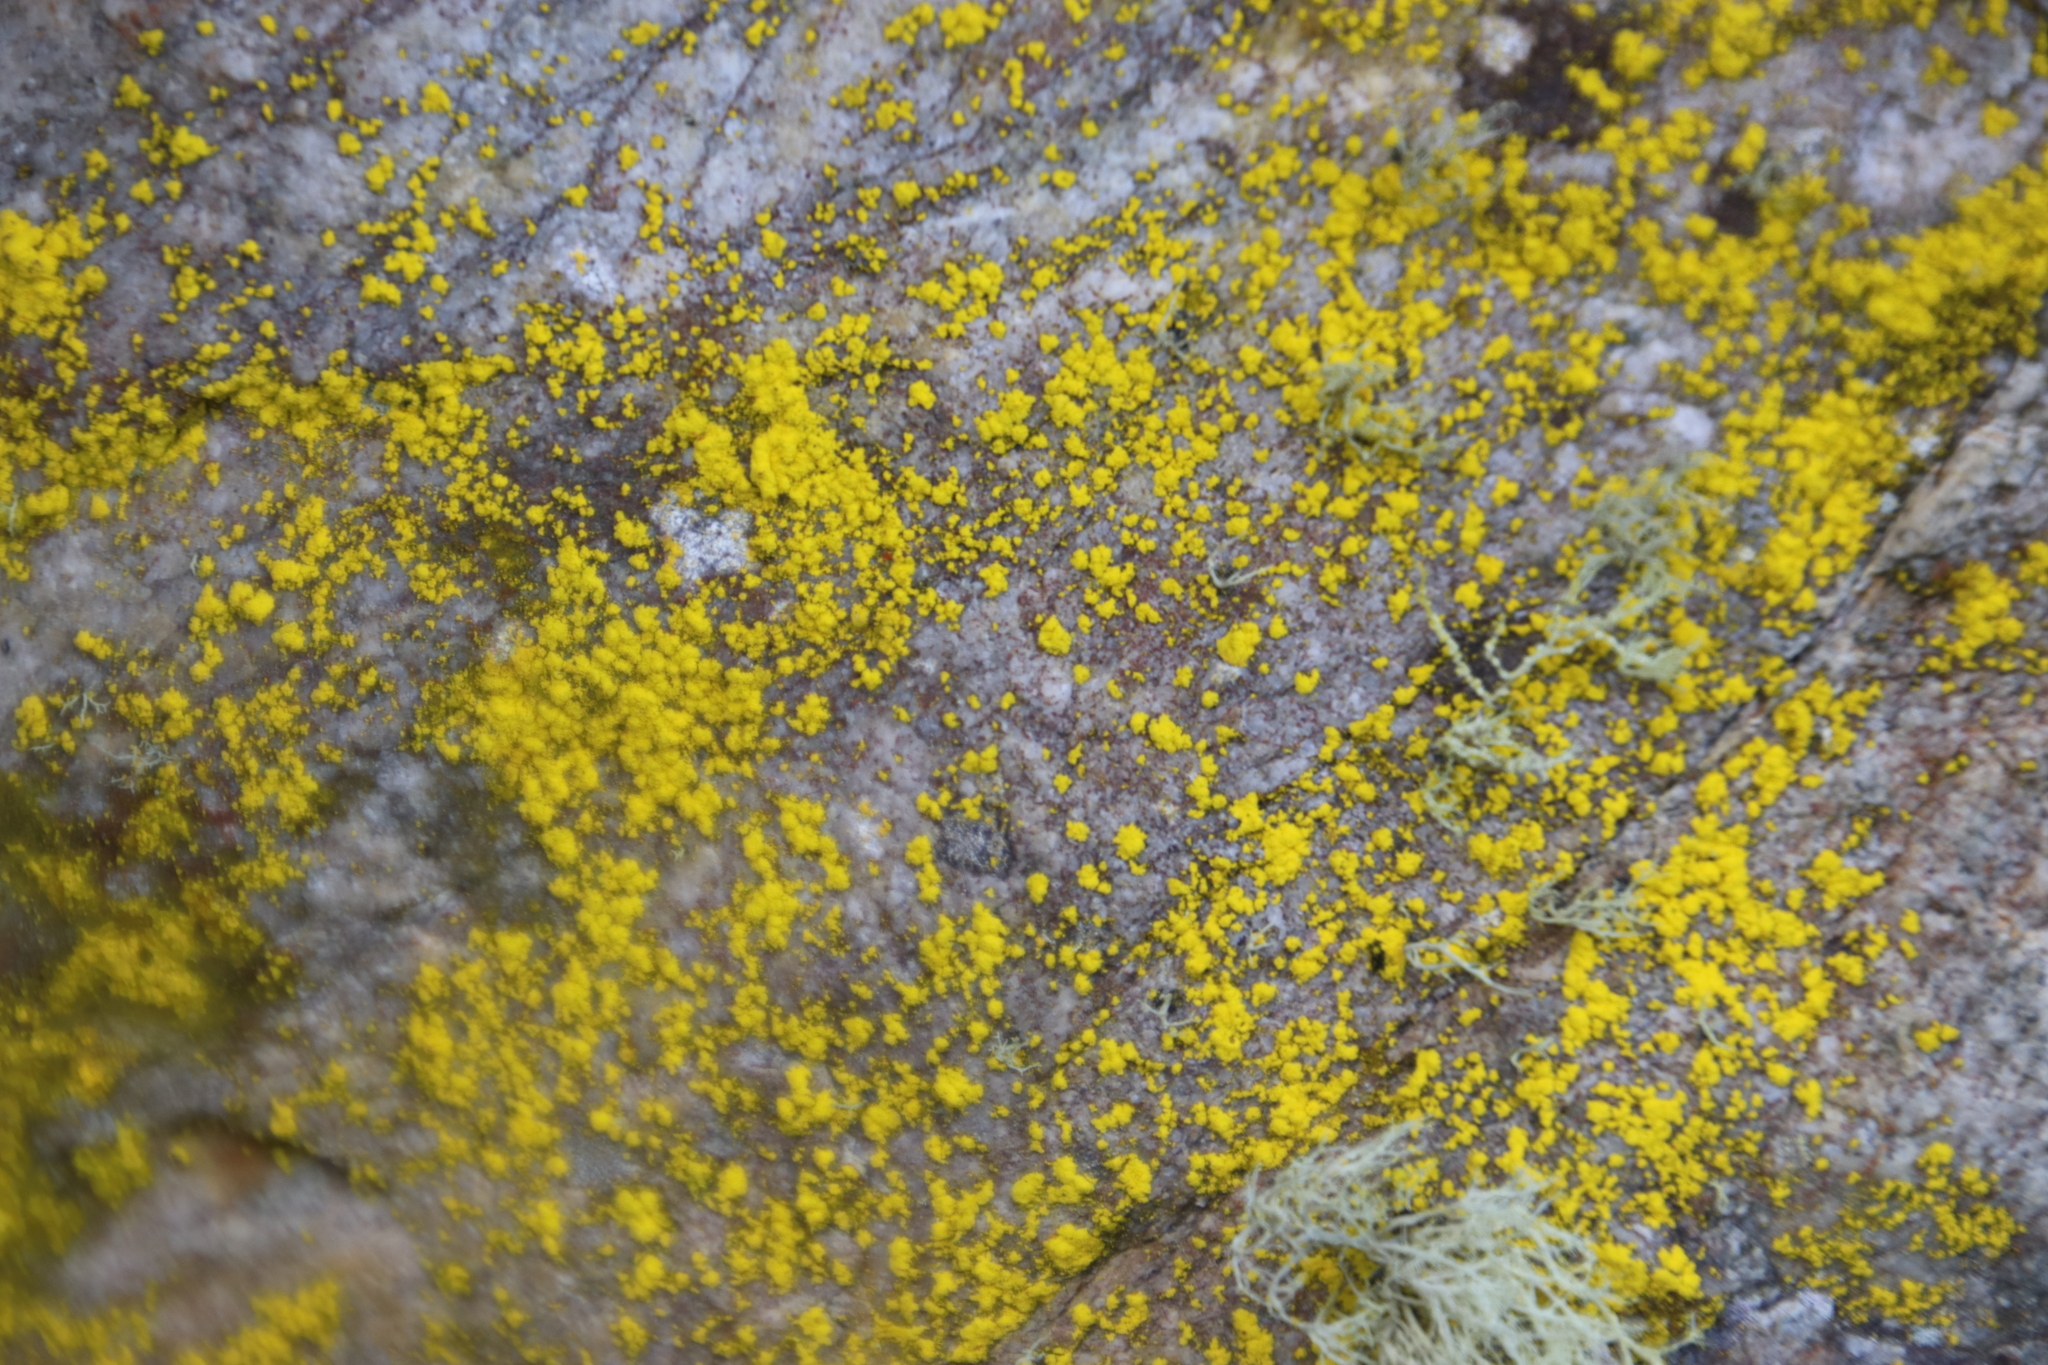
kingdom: Fungi
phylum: Ascomycota
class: Arthoniomycetes
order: Arthoniales
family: Chrysotrichaceae
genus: Chrysothrix
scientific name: Chrysothrix candelaris
